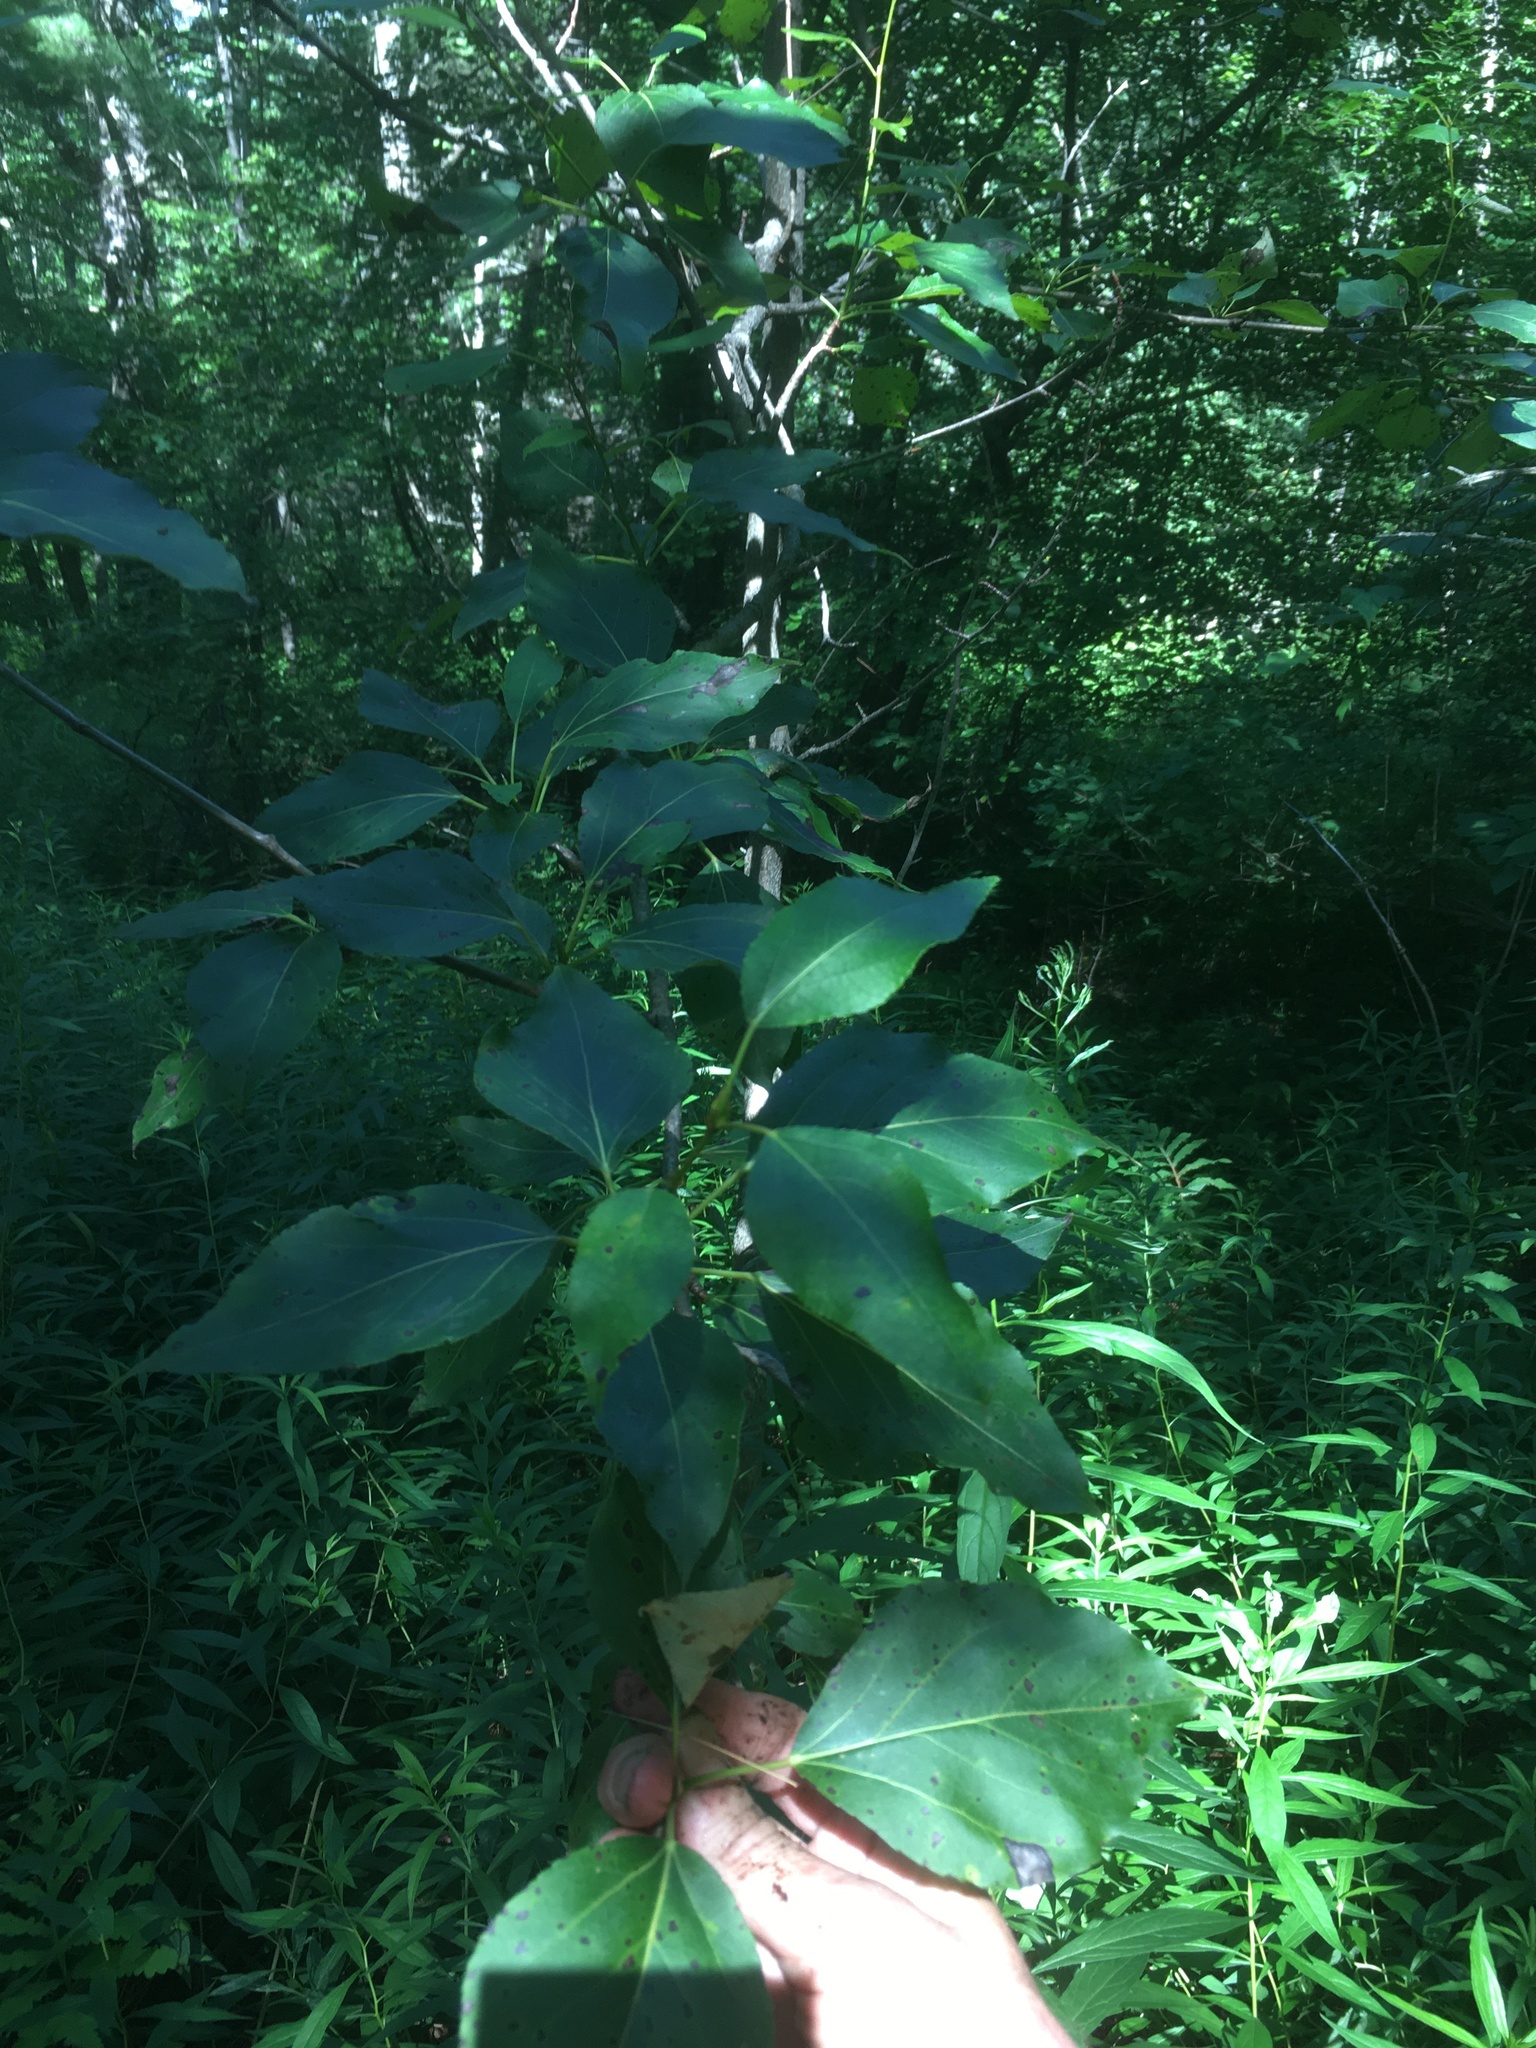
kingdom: Plantae
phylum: Tracheophyta
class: Magnoliopsida
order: Malpighiales
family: Salicaceae
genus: Populus
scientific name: Populus balsamifera
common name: Balsam poplar
